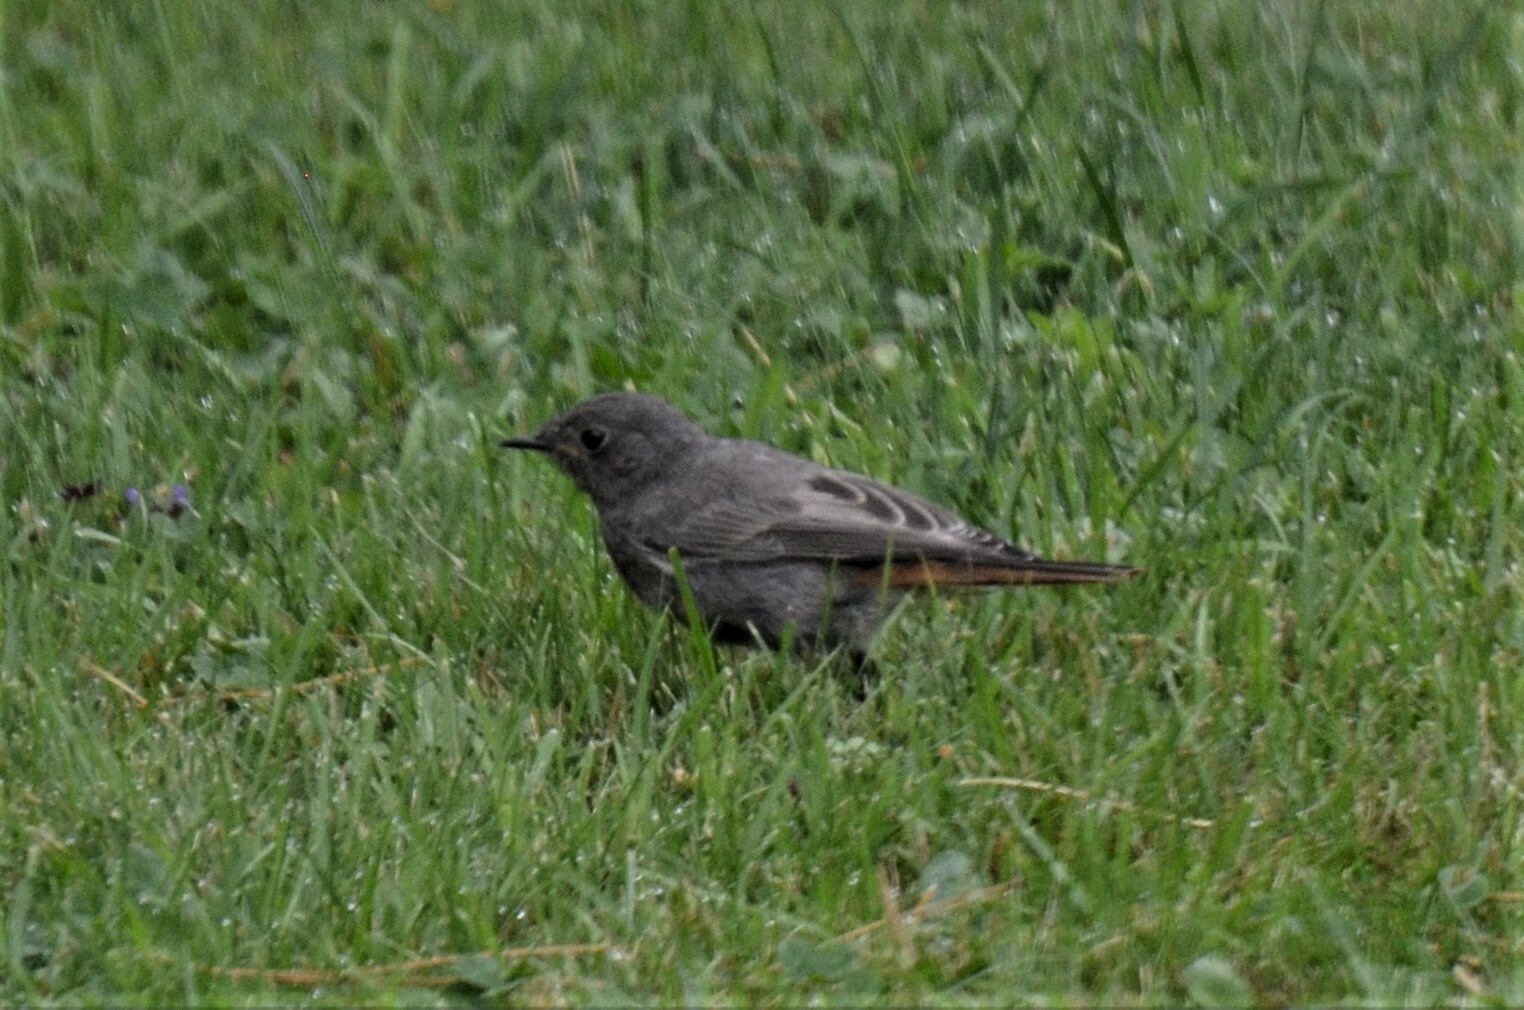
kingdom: Animalia
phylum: Chordata
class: Aves
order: Passeriformes
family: Muscicapidae
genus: Phoenicurus
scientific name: Phoenicurus ochruros
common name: Black redstart
